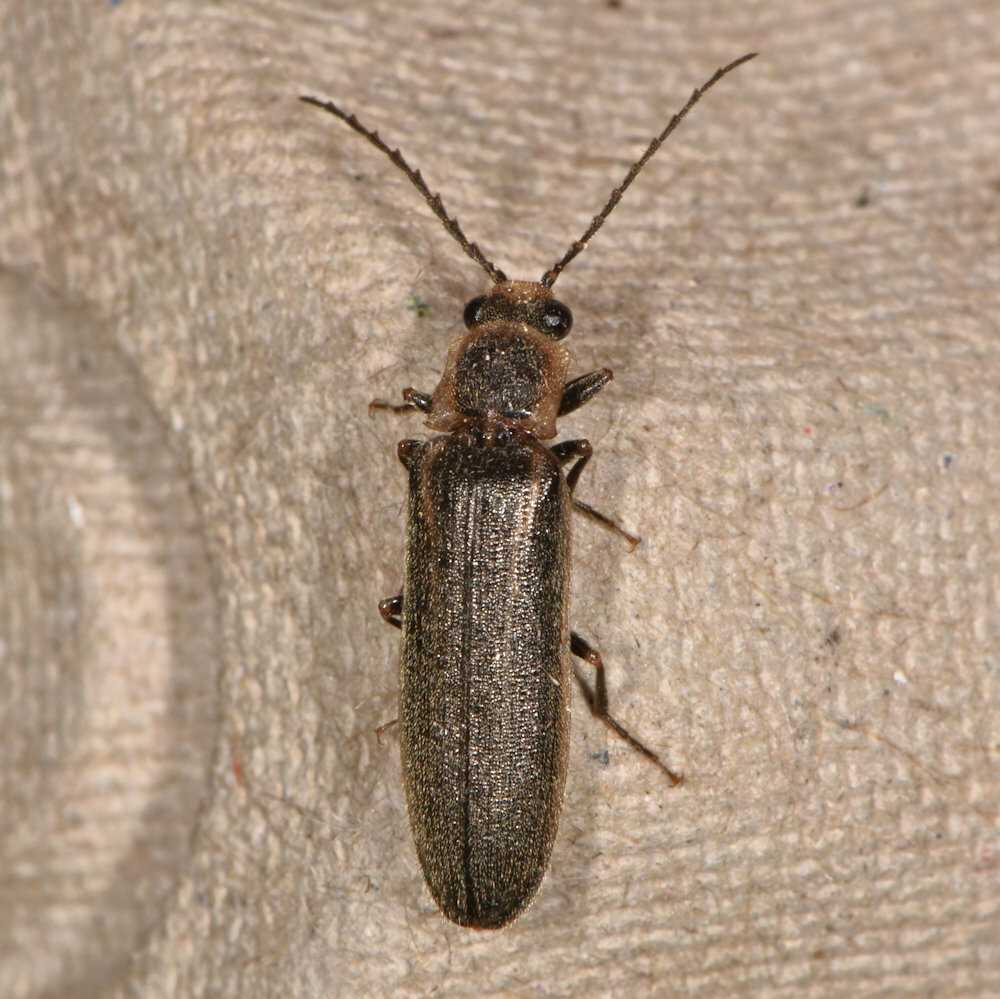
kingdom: Animalia
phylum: Arthropoda
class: Insecta
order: Coleoptera
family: Elateridae
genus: Denticollis
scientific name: Denticollis denticornis
